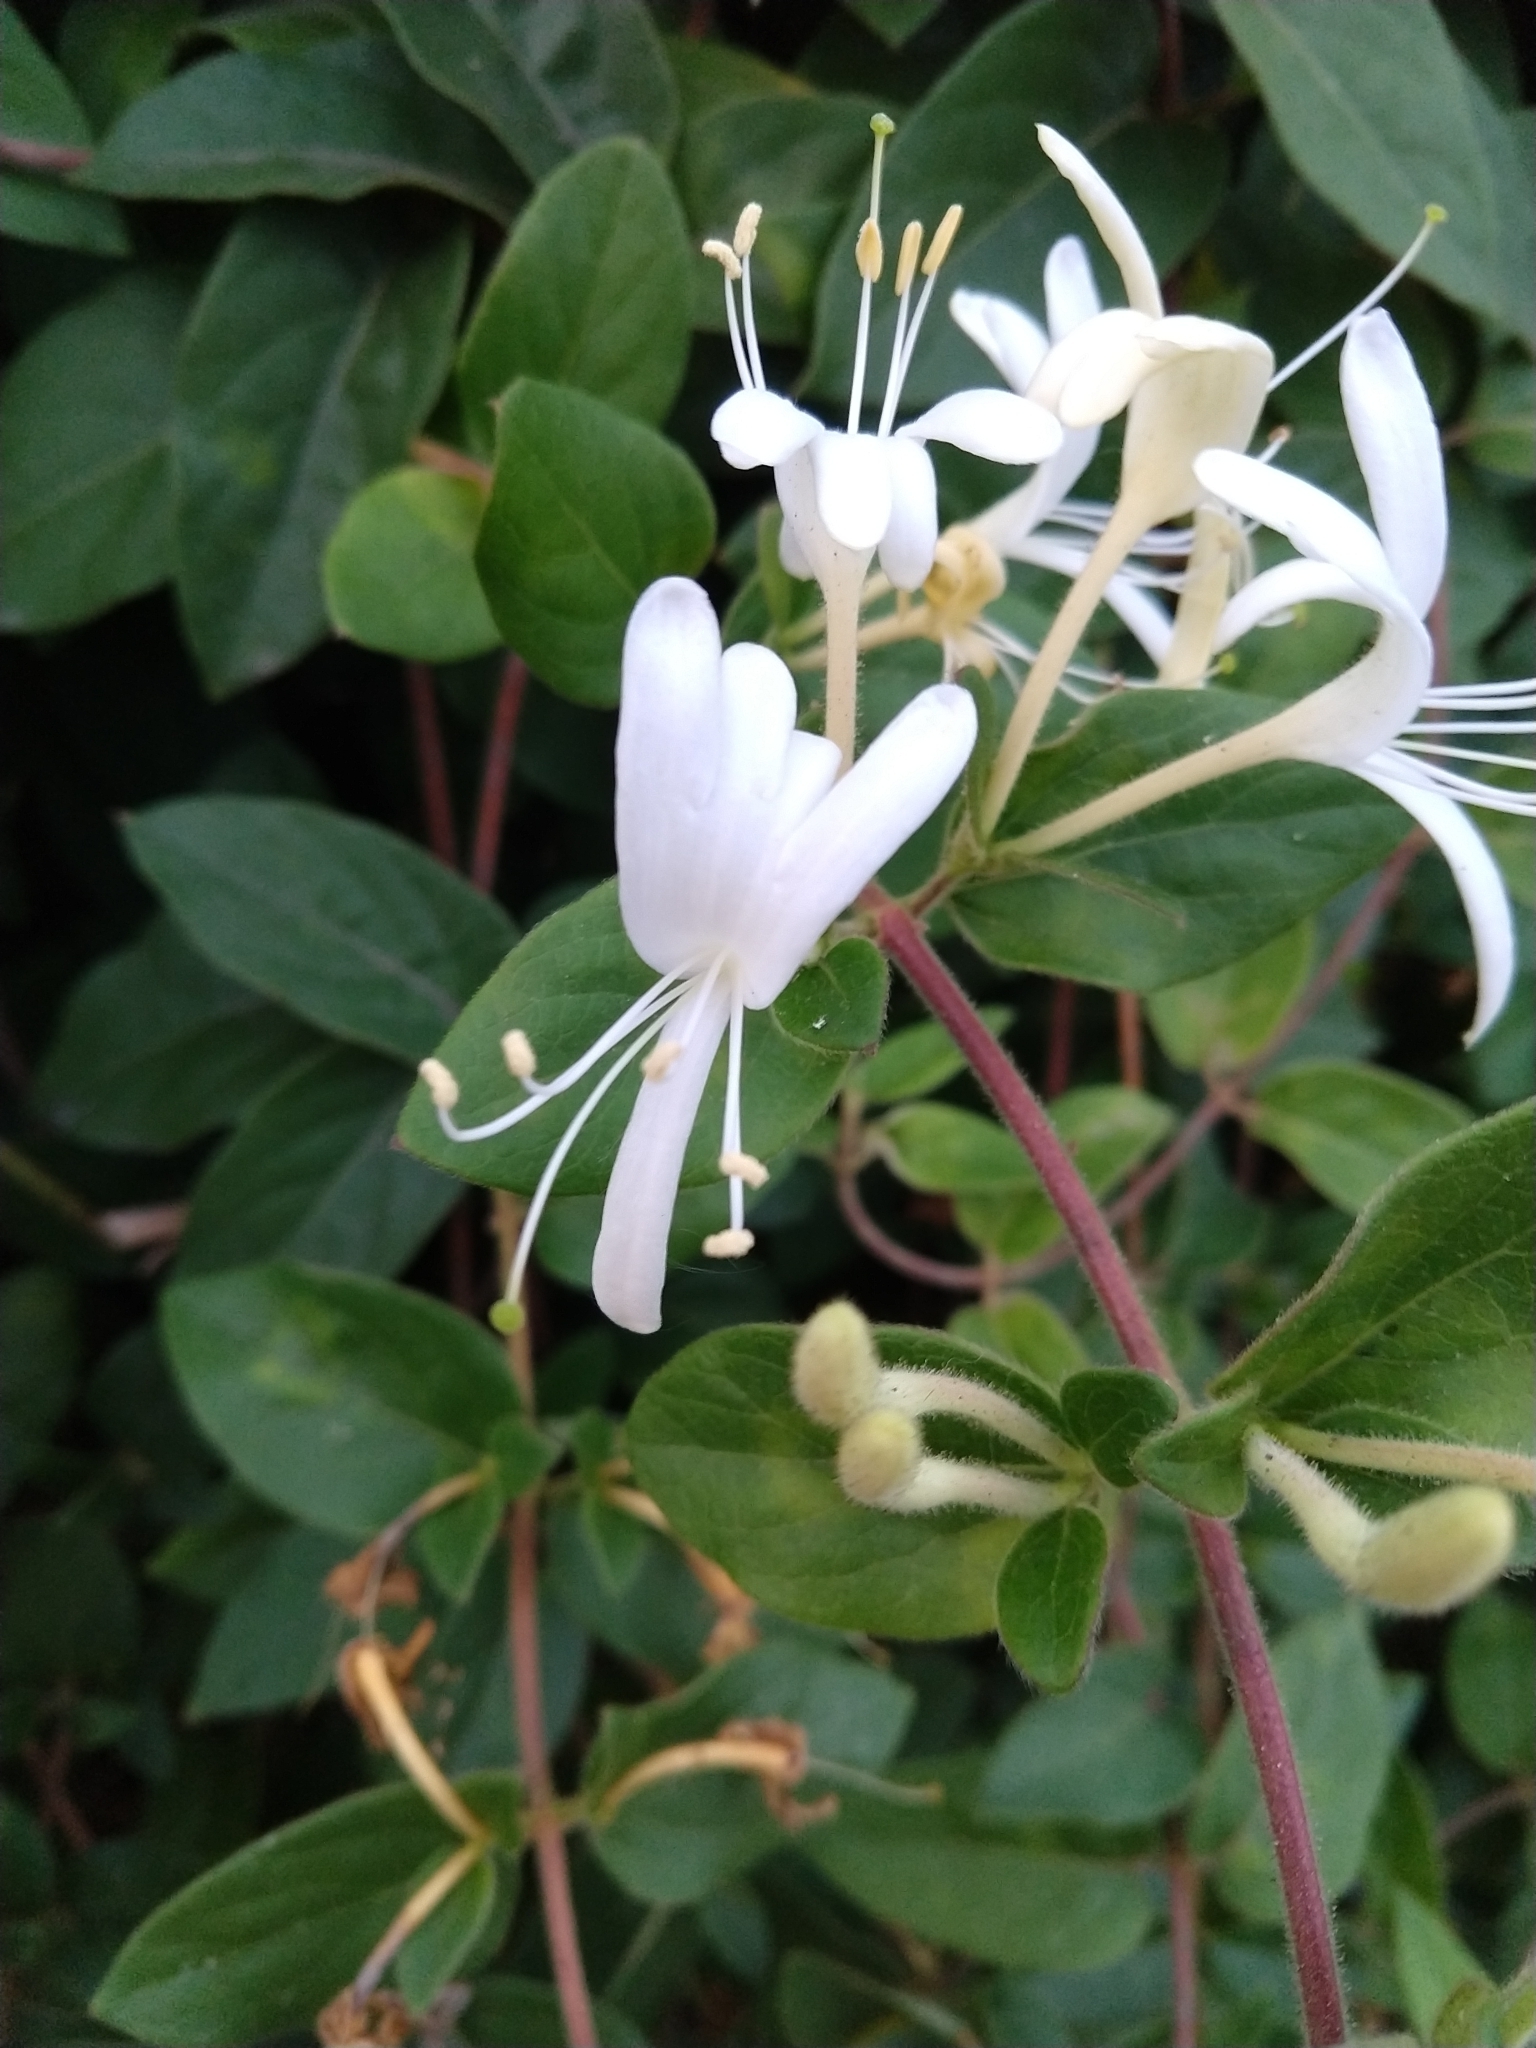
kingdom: Plantae
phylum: Tracheophyta
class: Magnoliopsida
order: Dipsacales
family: Caprifoliaceae
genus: Lonicera
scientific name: Lonicera japonica
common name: Japanese honeysuckle
